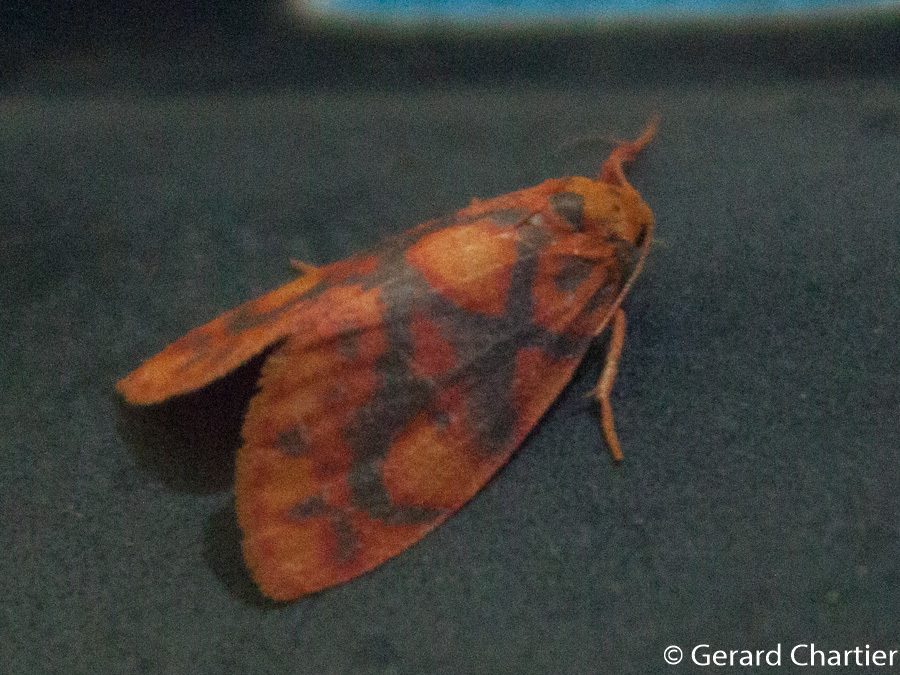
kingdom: Animalia
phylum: Arthropoda
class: Insecta
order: Lepidoptera
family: Erebidae
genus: Nanarsine
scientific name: Nanarsine porphyrea
